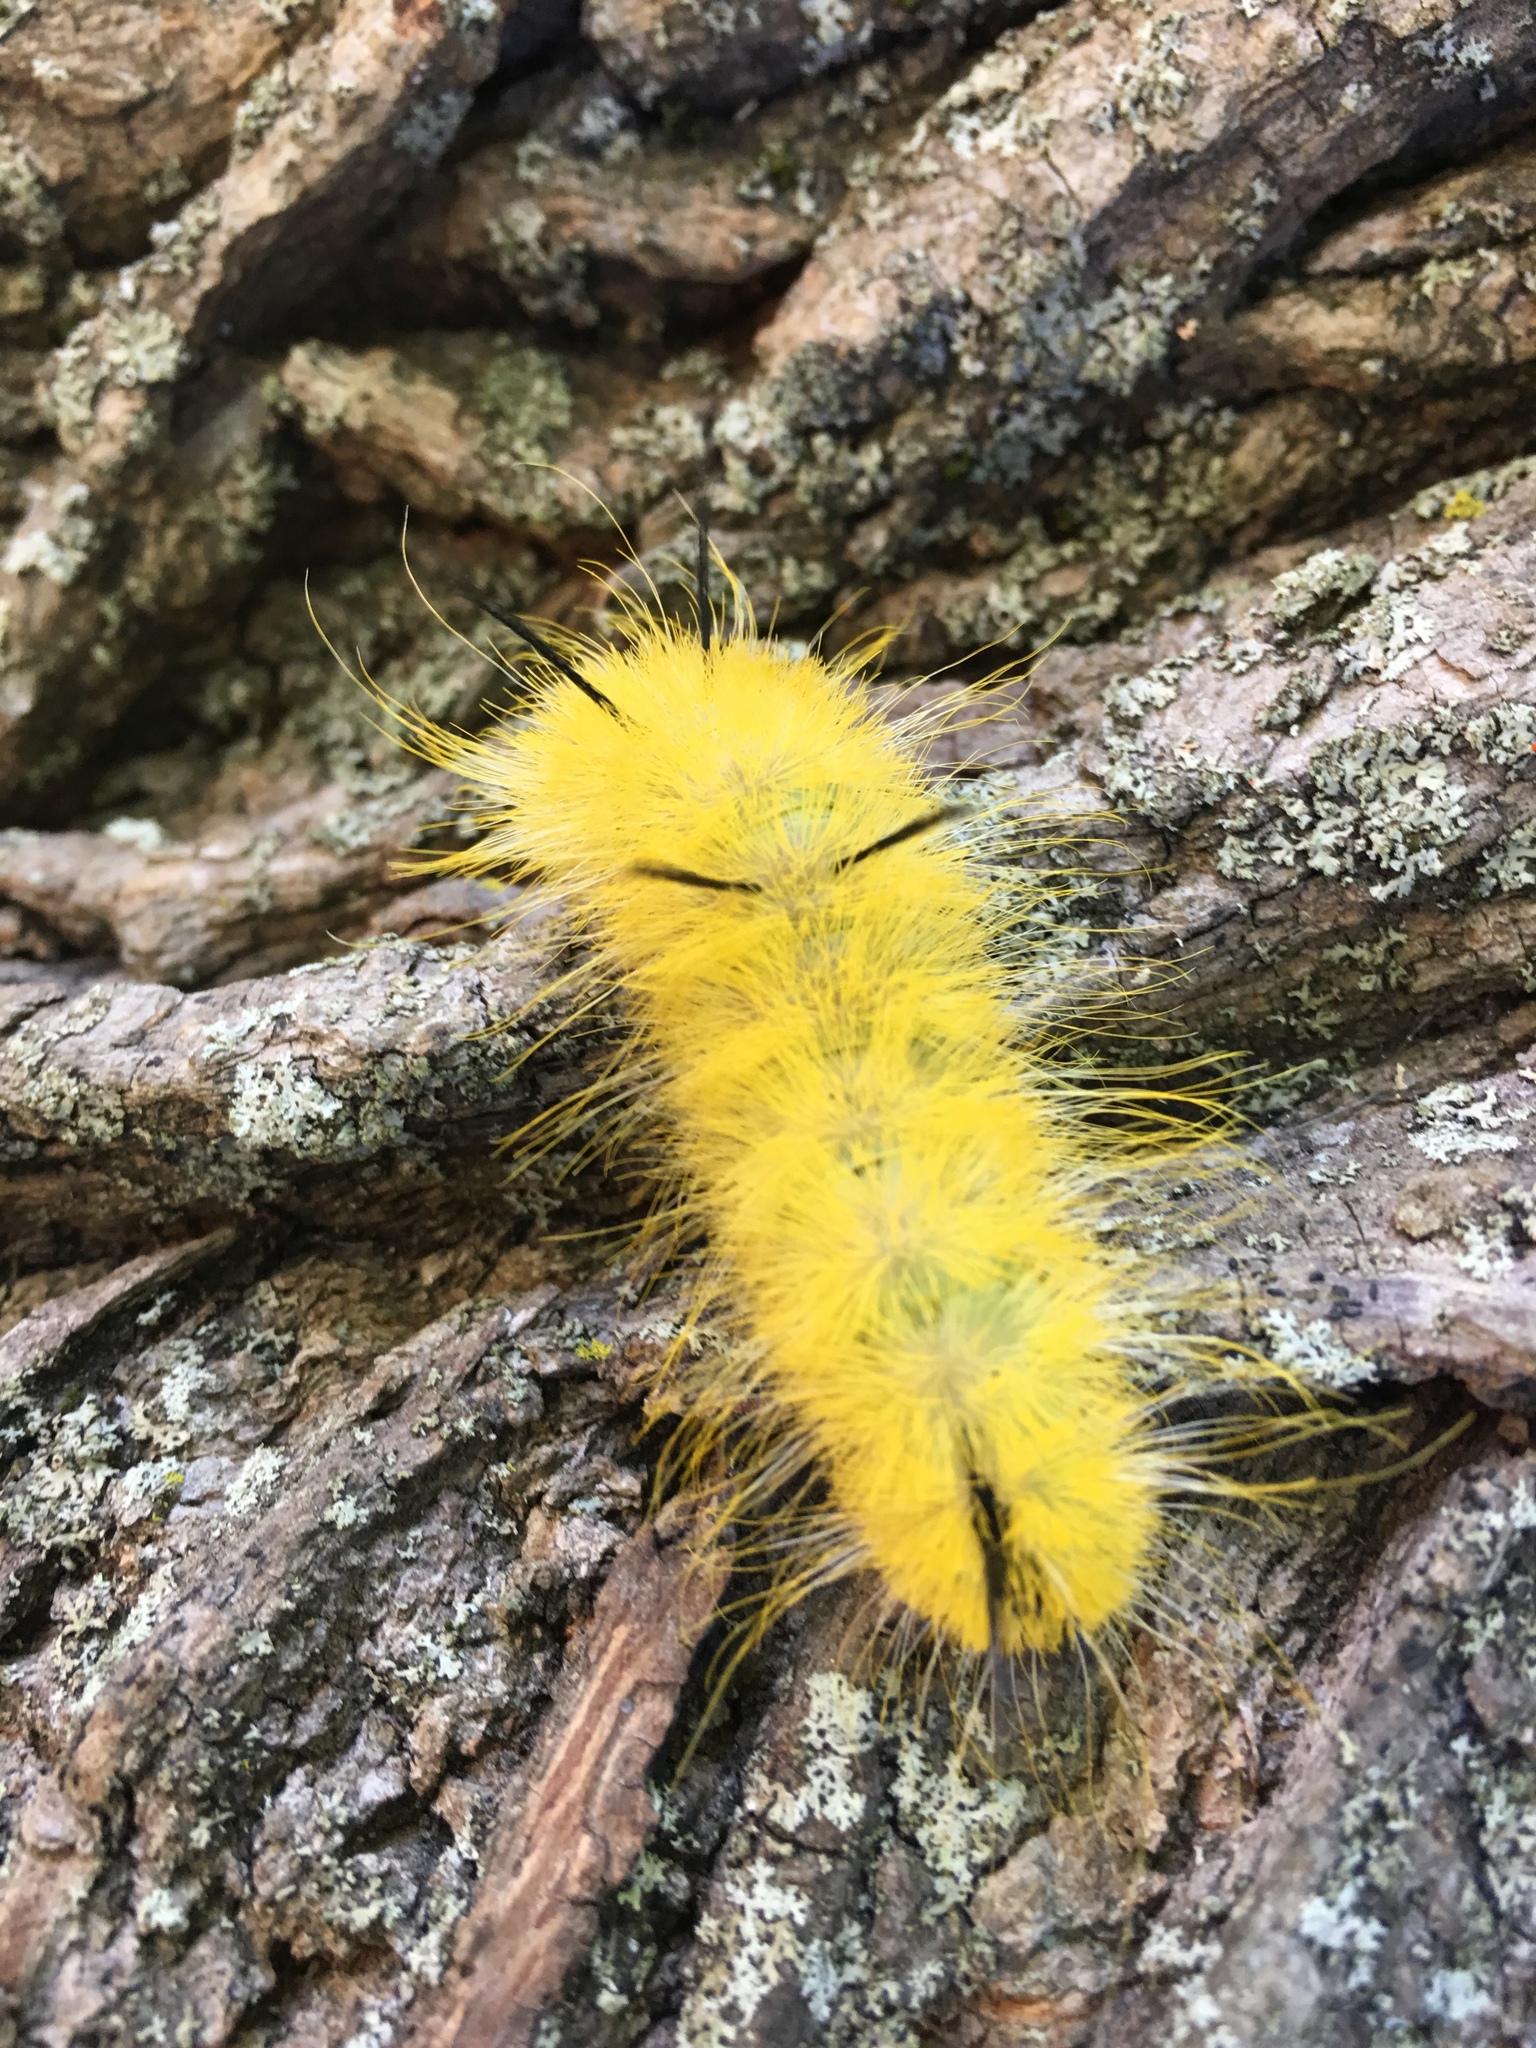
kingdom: Animalia
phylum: Arthropoda
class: Insecta
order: Lepidoptera
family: Noctuidae
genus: Acronicta
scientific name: Acronicta americana
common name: American dagger
